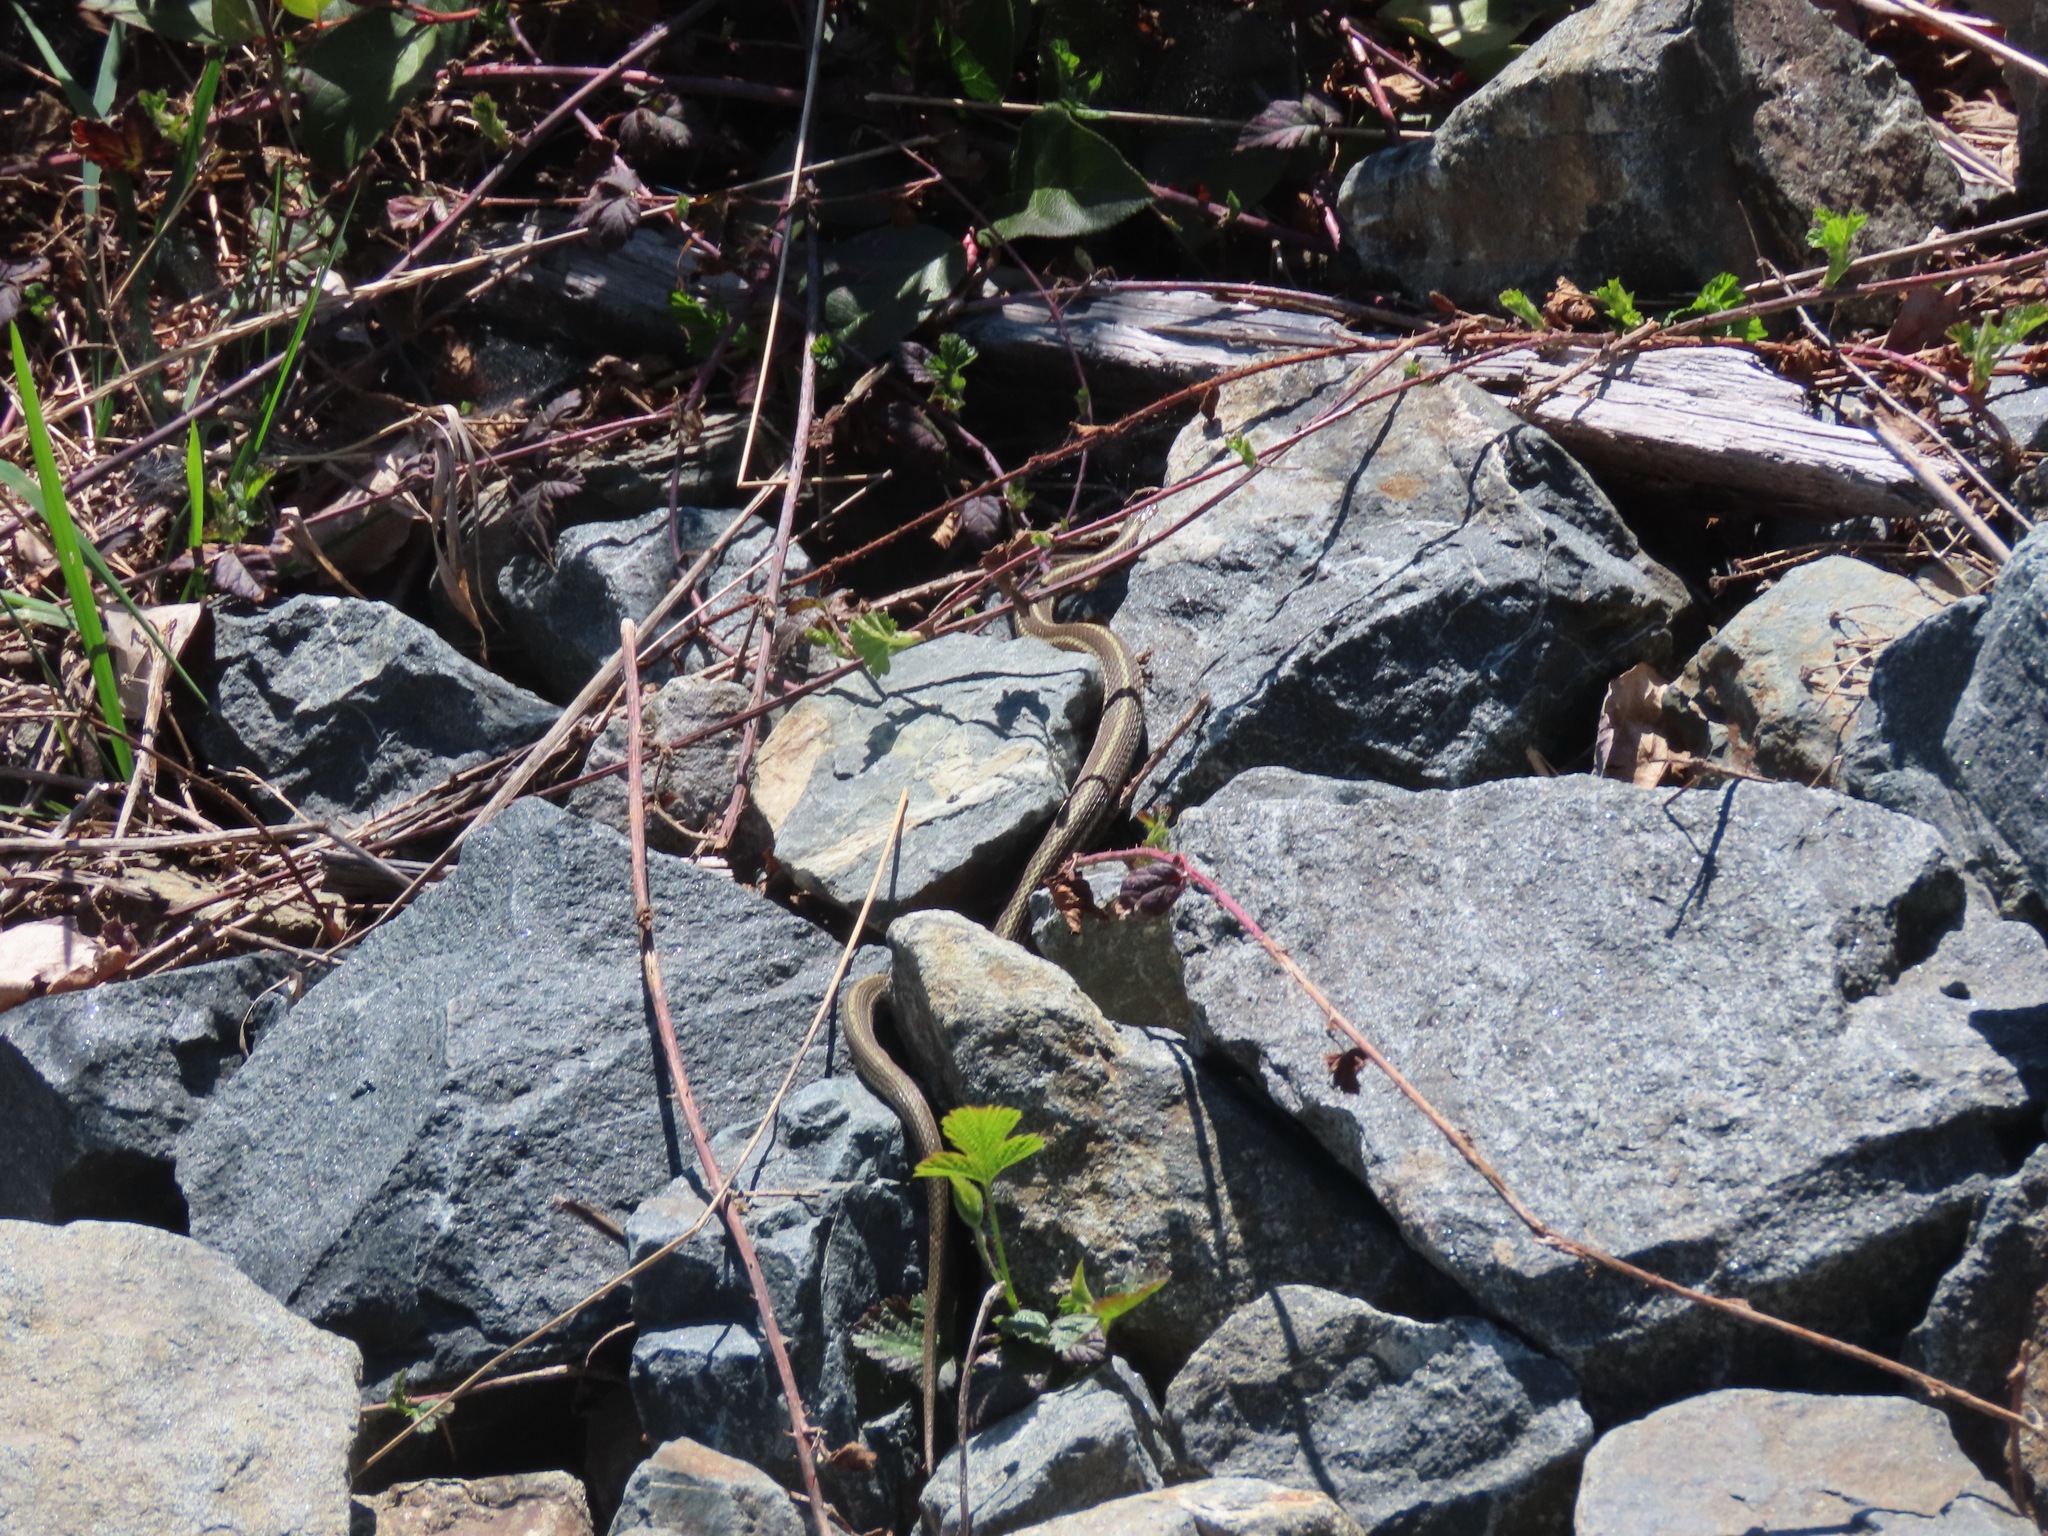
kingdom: Animalia
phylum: Chordata
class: Squamata
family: Colubridae
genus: Thamnophis
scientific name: Thamnophis ordinoides
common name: Northwestern garter snake
